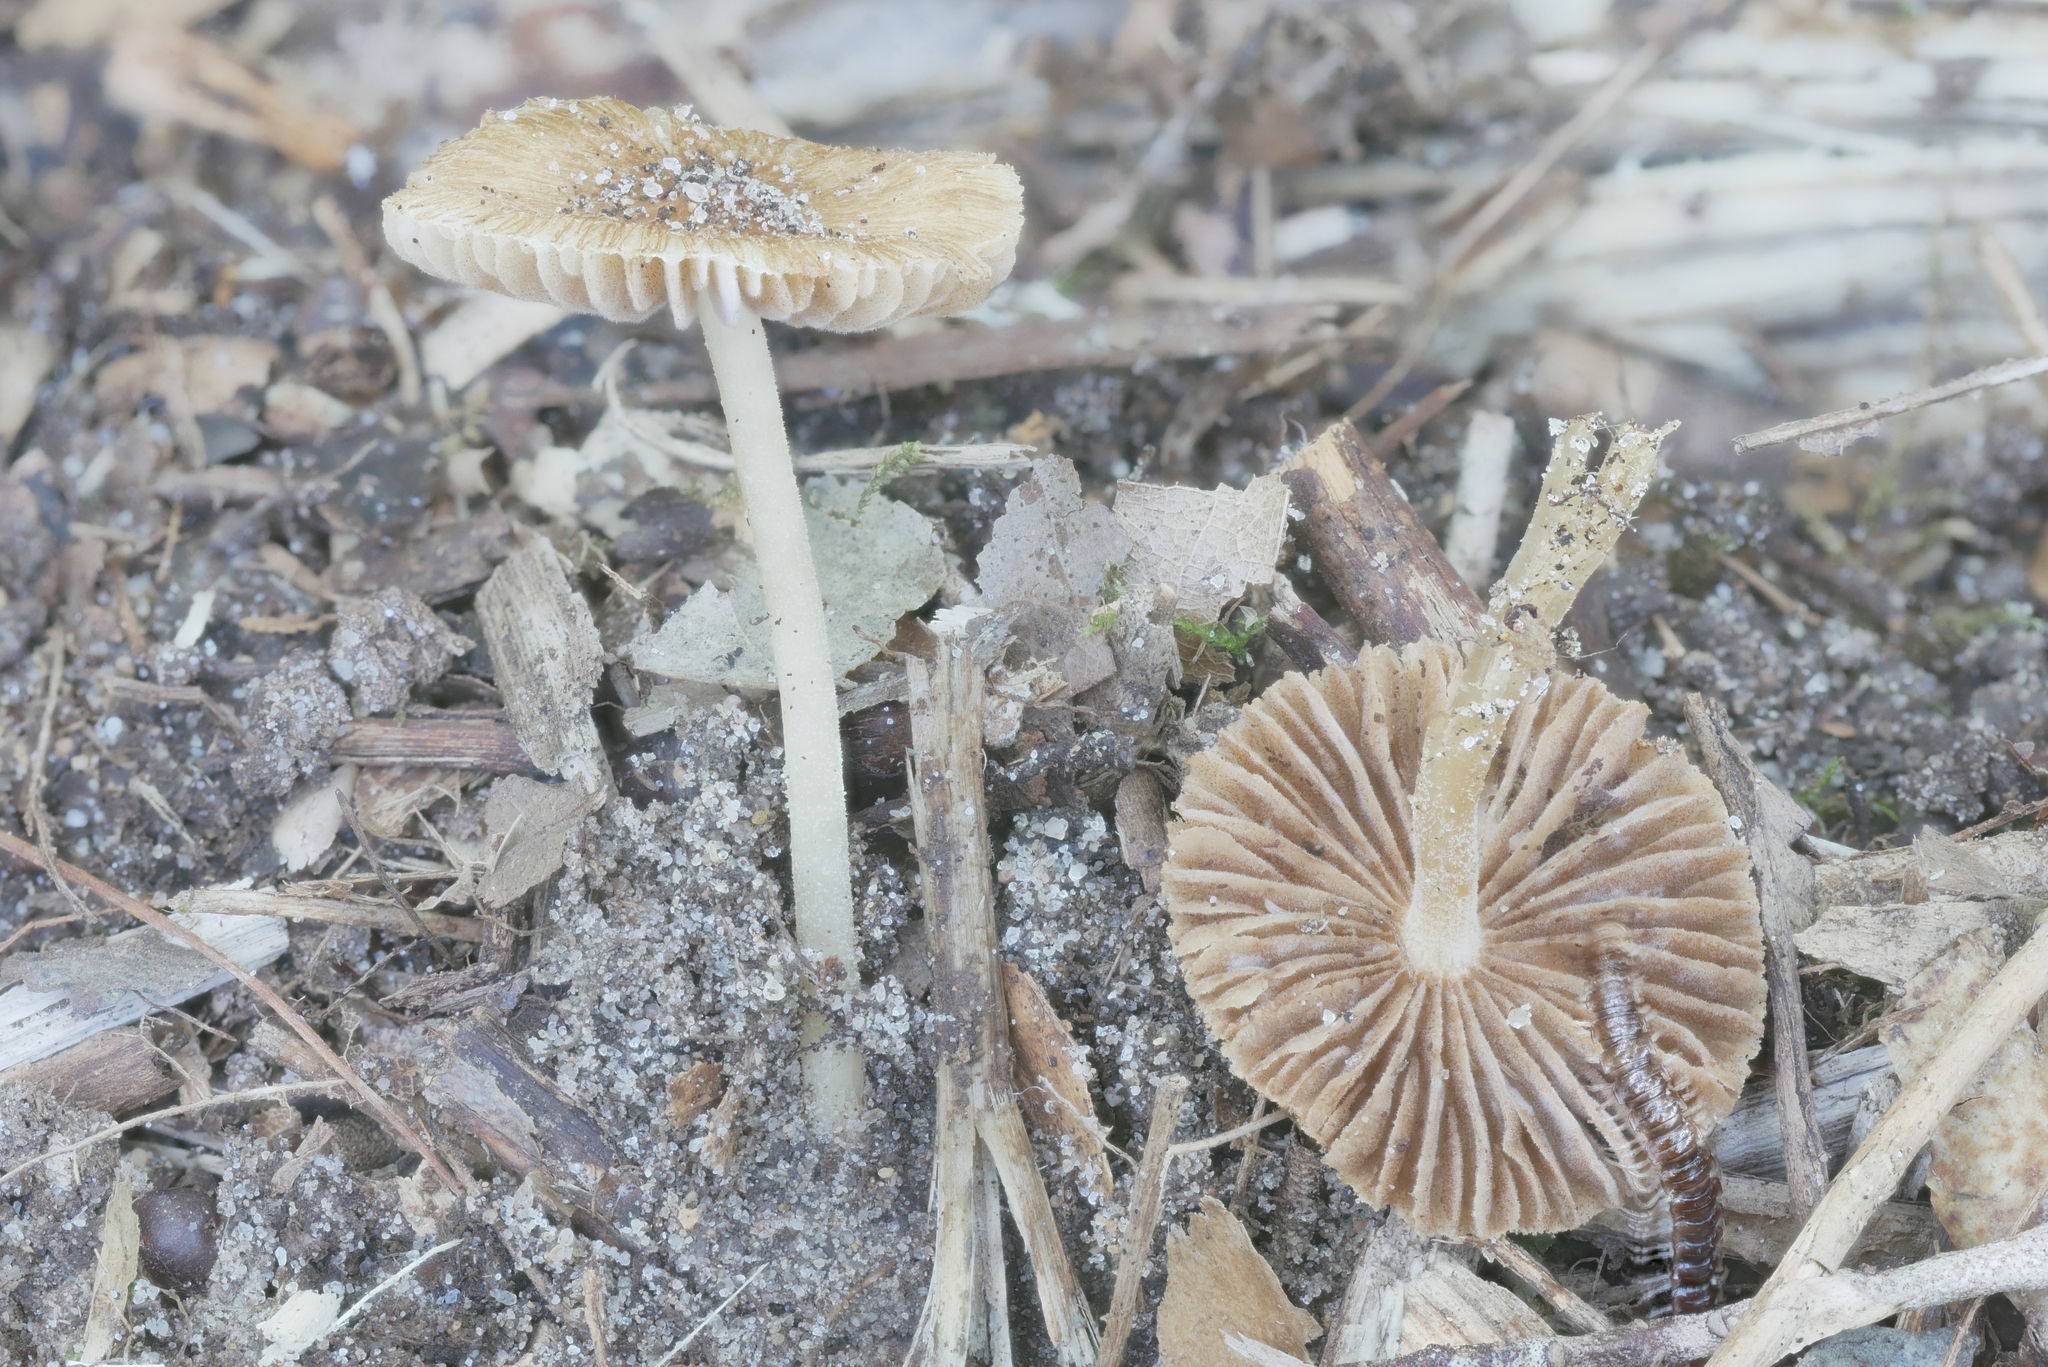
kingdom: Fungi
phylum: Basidiomycota
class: Agaricomycetes
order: Agaricales
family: Inocybaceae
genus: Inocybe
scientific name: Inocybe margaritispora
